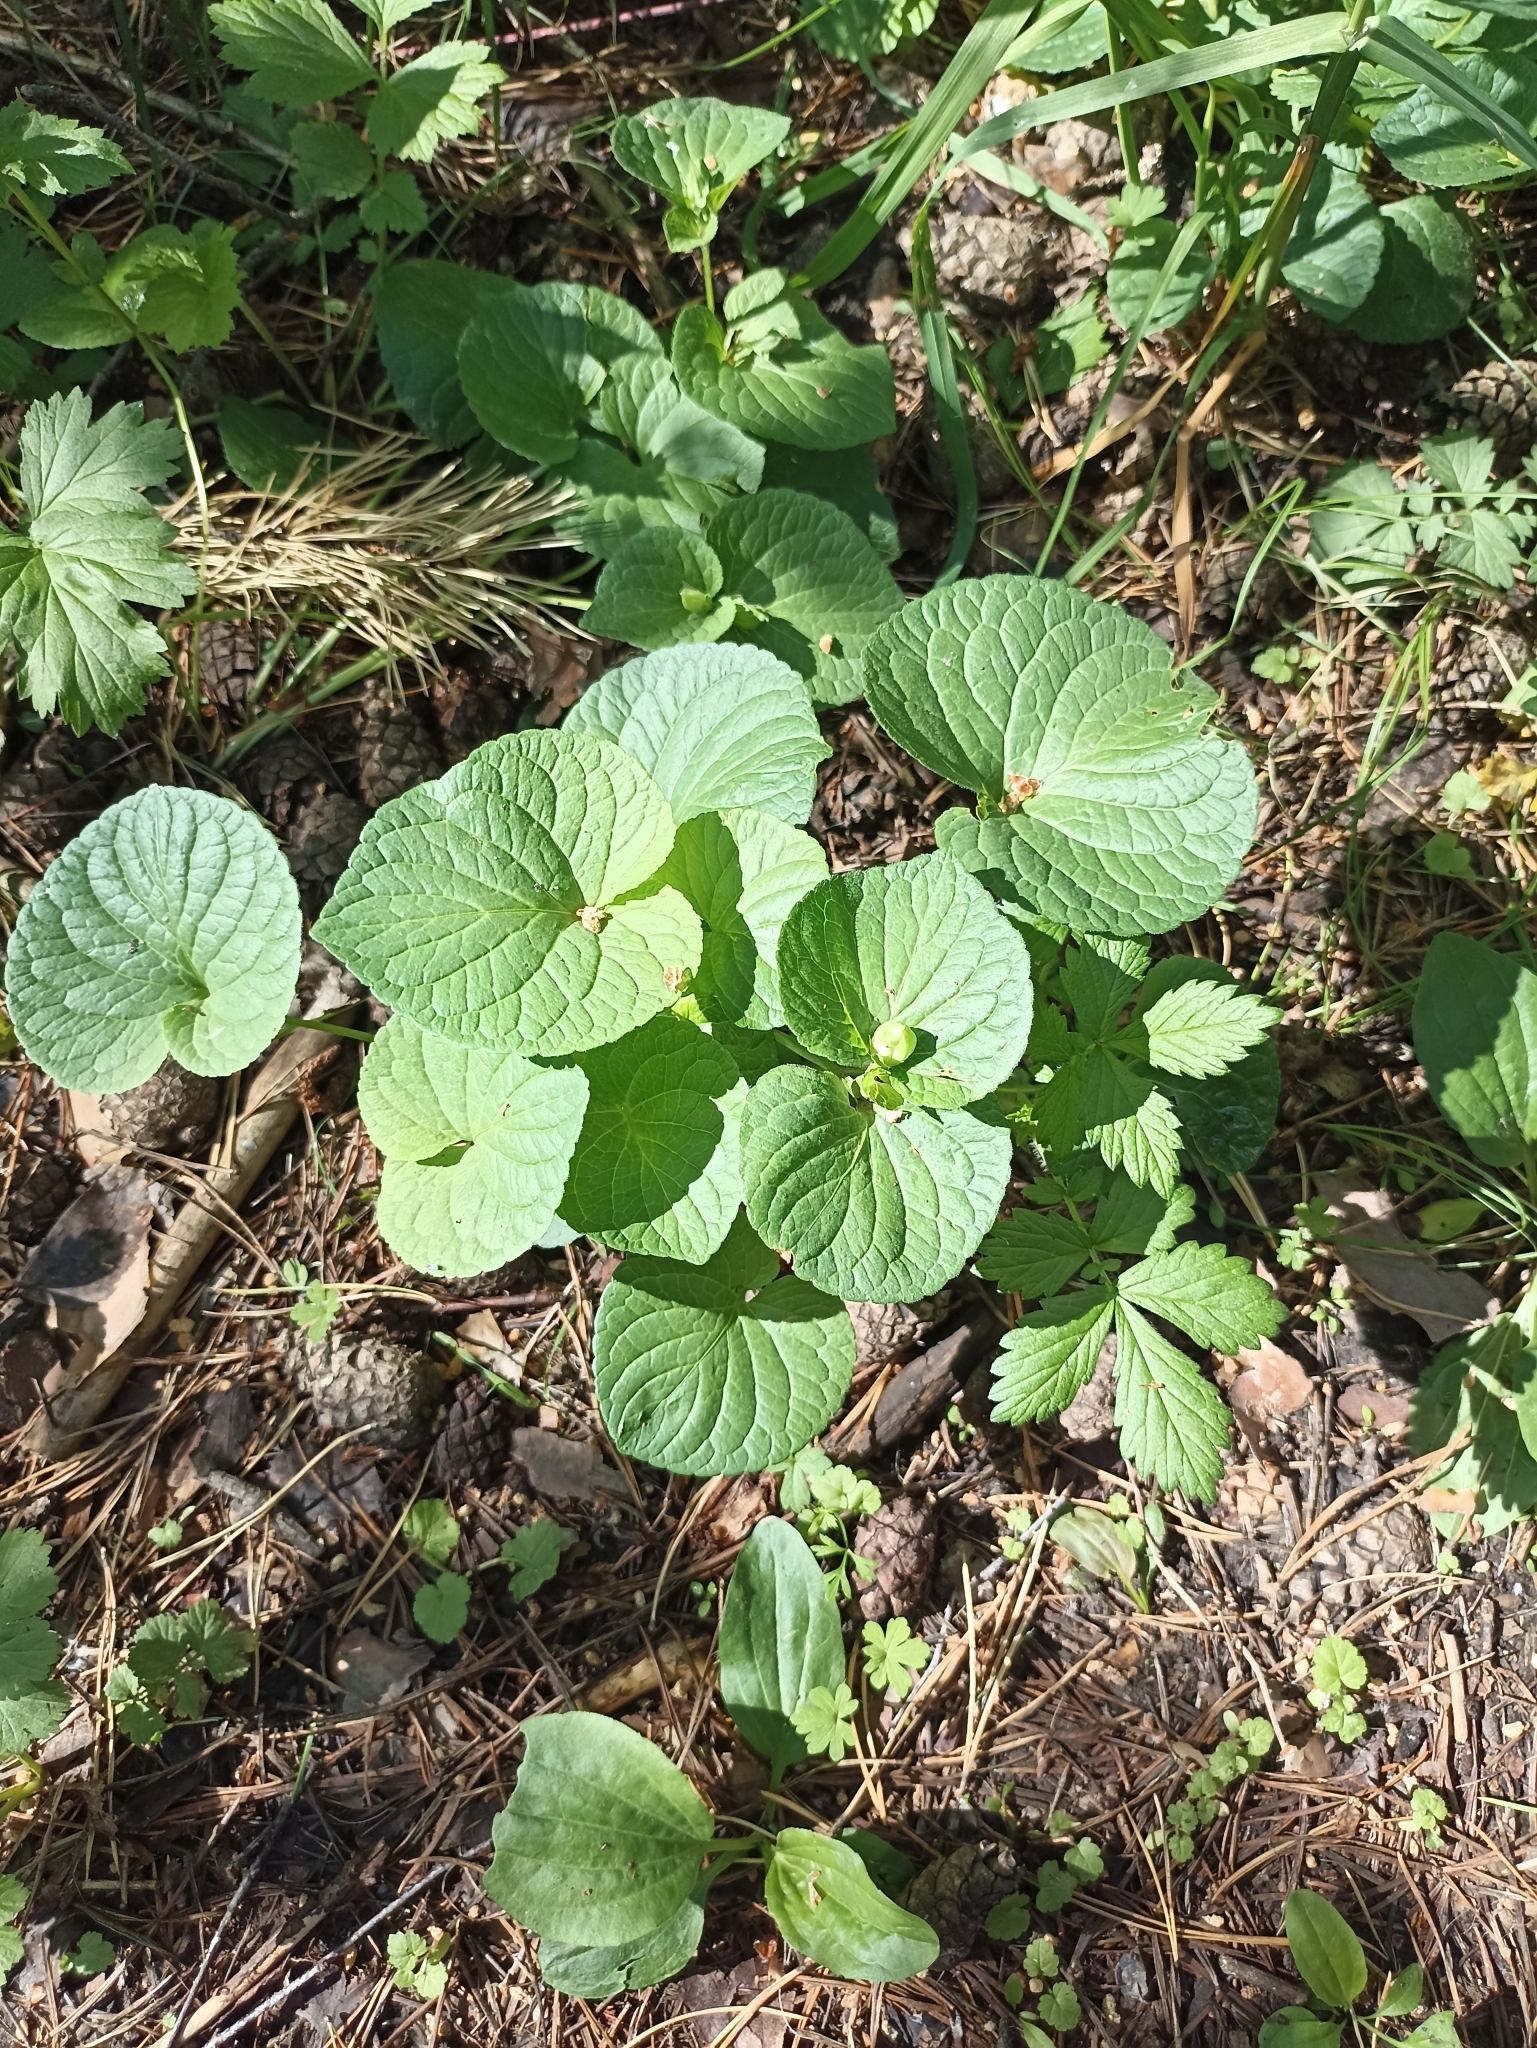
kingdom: Plantae
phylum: Tracheophyta
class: Magnoliopsida
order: Malpighiales
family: Violaceae
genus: Viola
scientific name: Viola mirabilis
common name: Wonder violet
